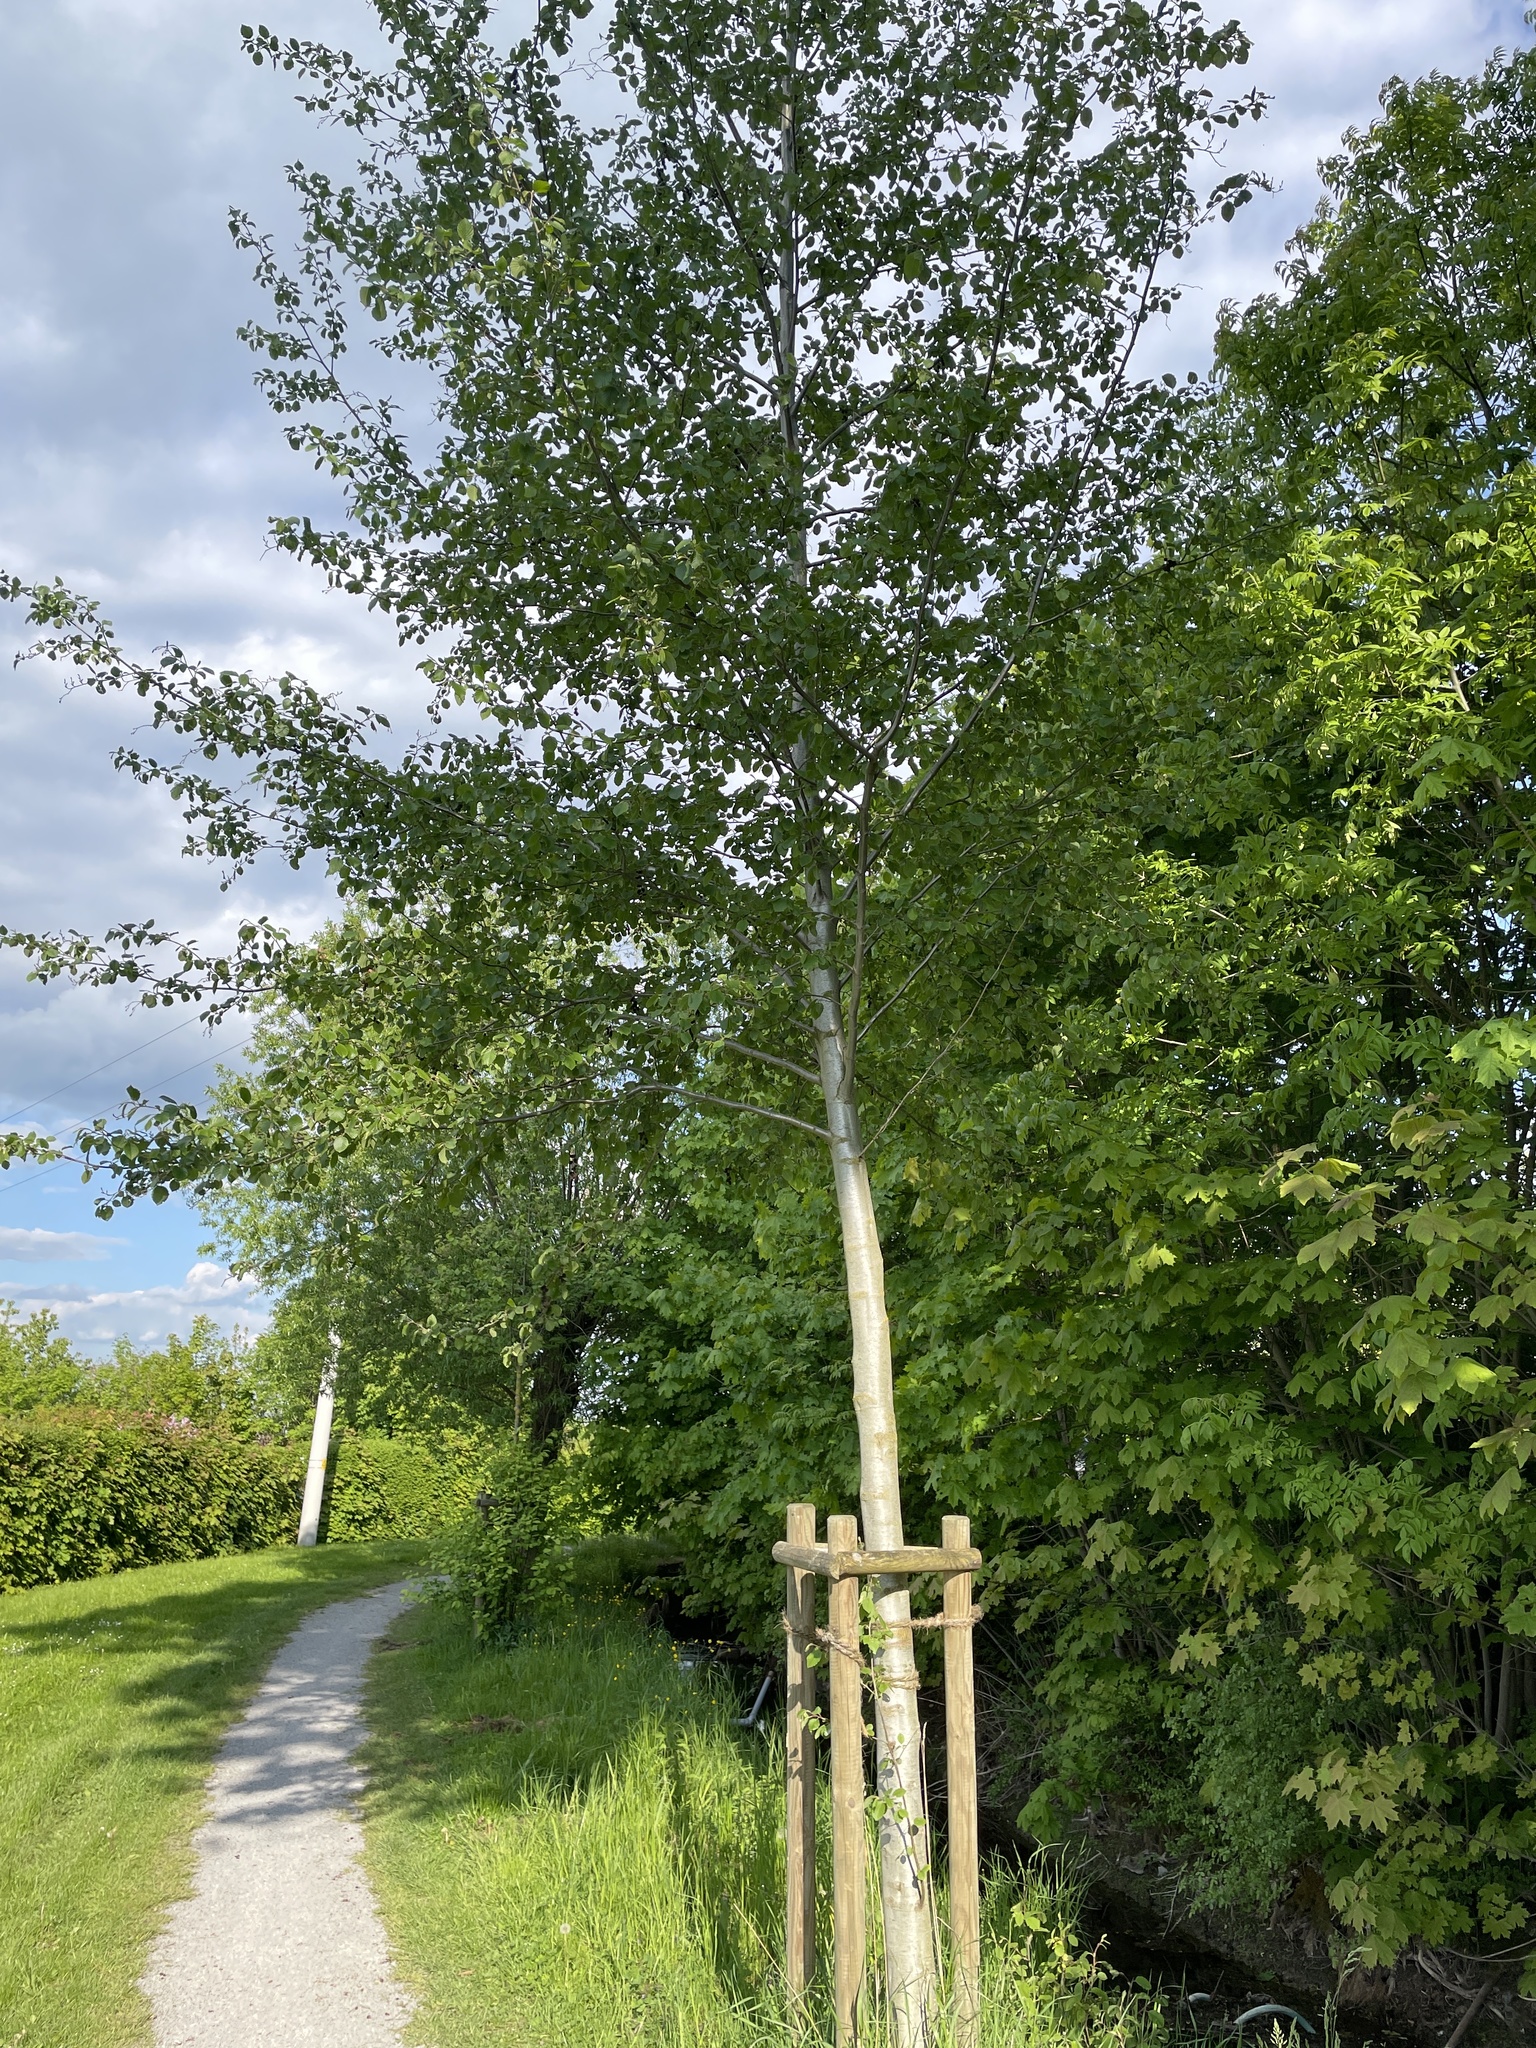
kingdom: Plantae
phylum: Tracheophyta
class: Magnoliopsida
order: Fagales
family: Betulaceae
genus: Alnus
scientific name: Alnus incana
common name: Grey alder
